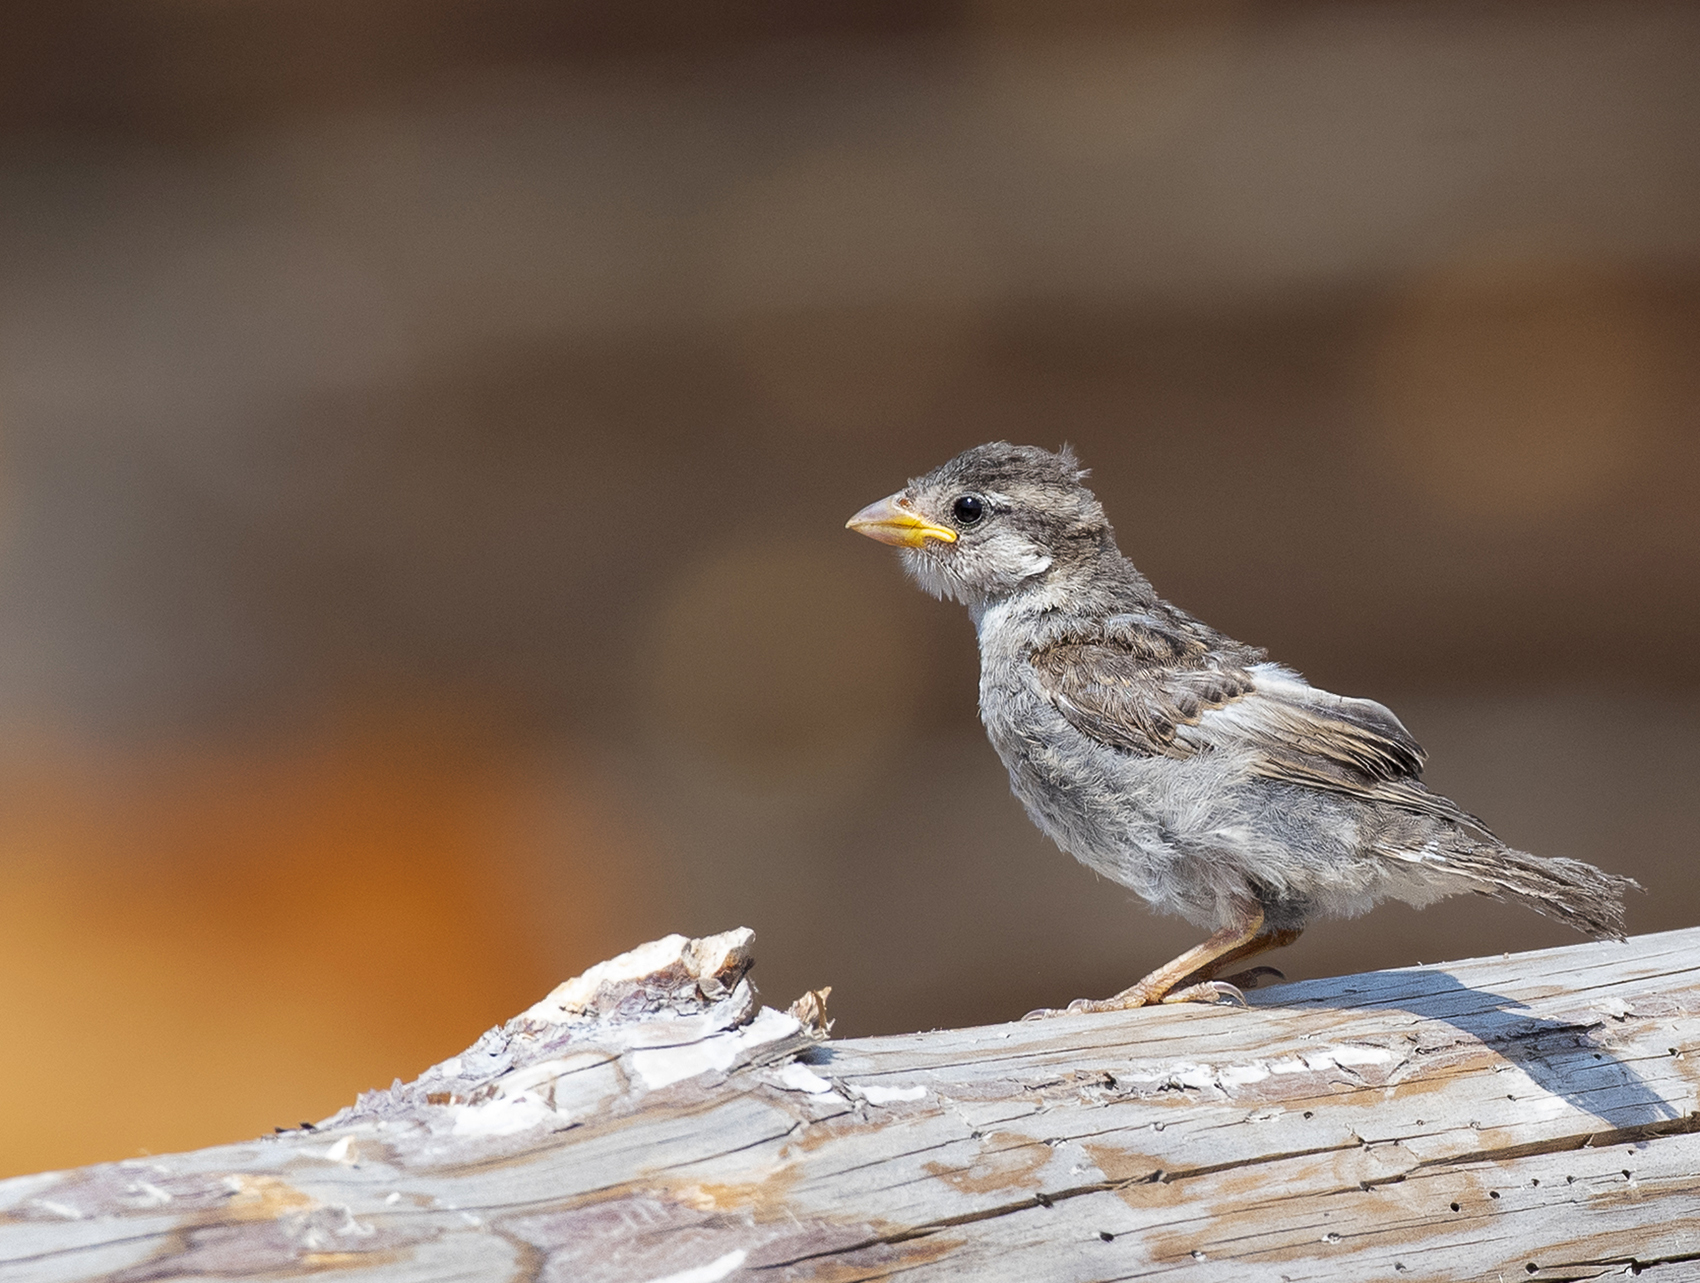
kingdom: Animalia
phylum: Chordata
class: Aves
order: Passeriformes
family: Passeridae
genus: Passer
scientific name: Passer domesticus
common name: House sparrow
